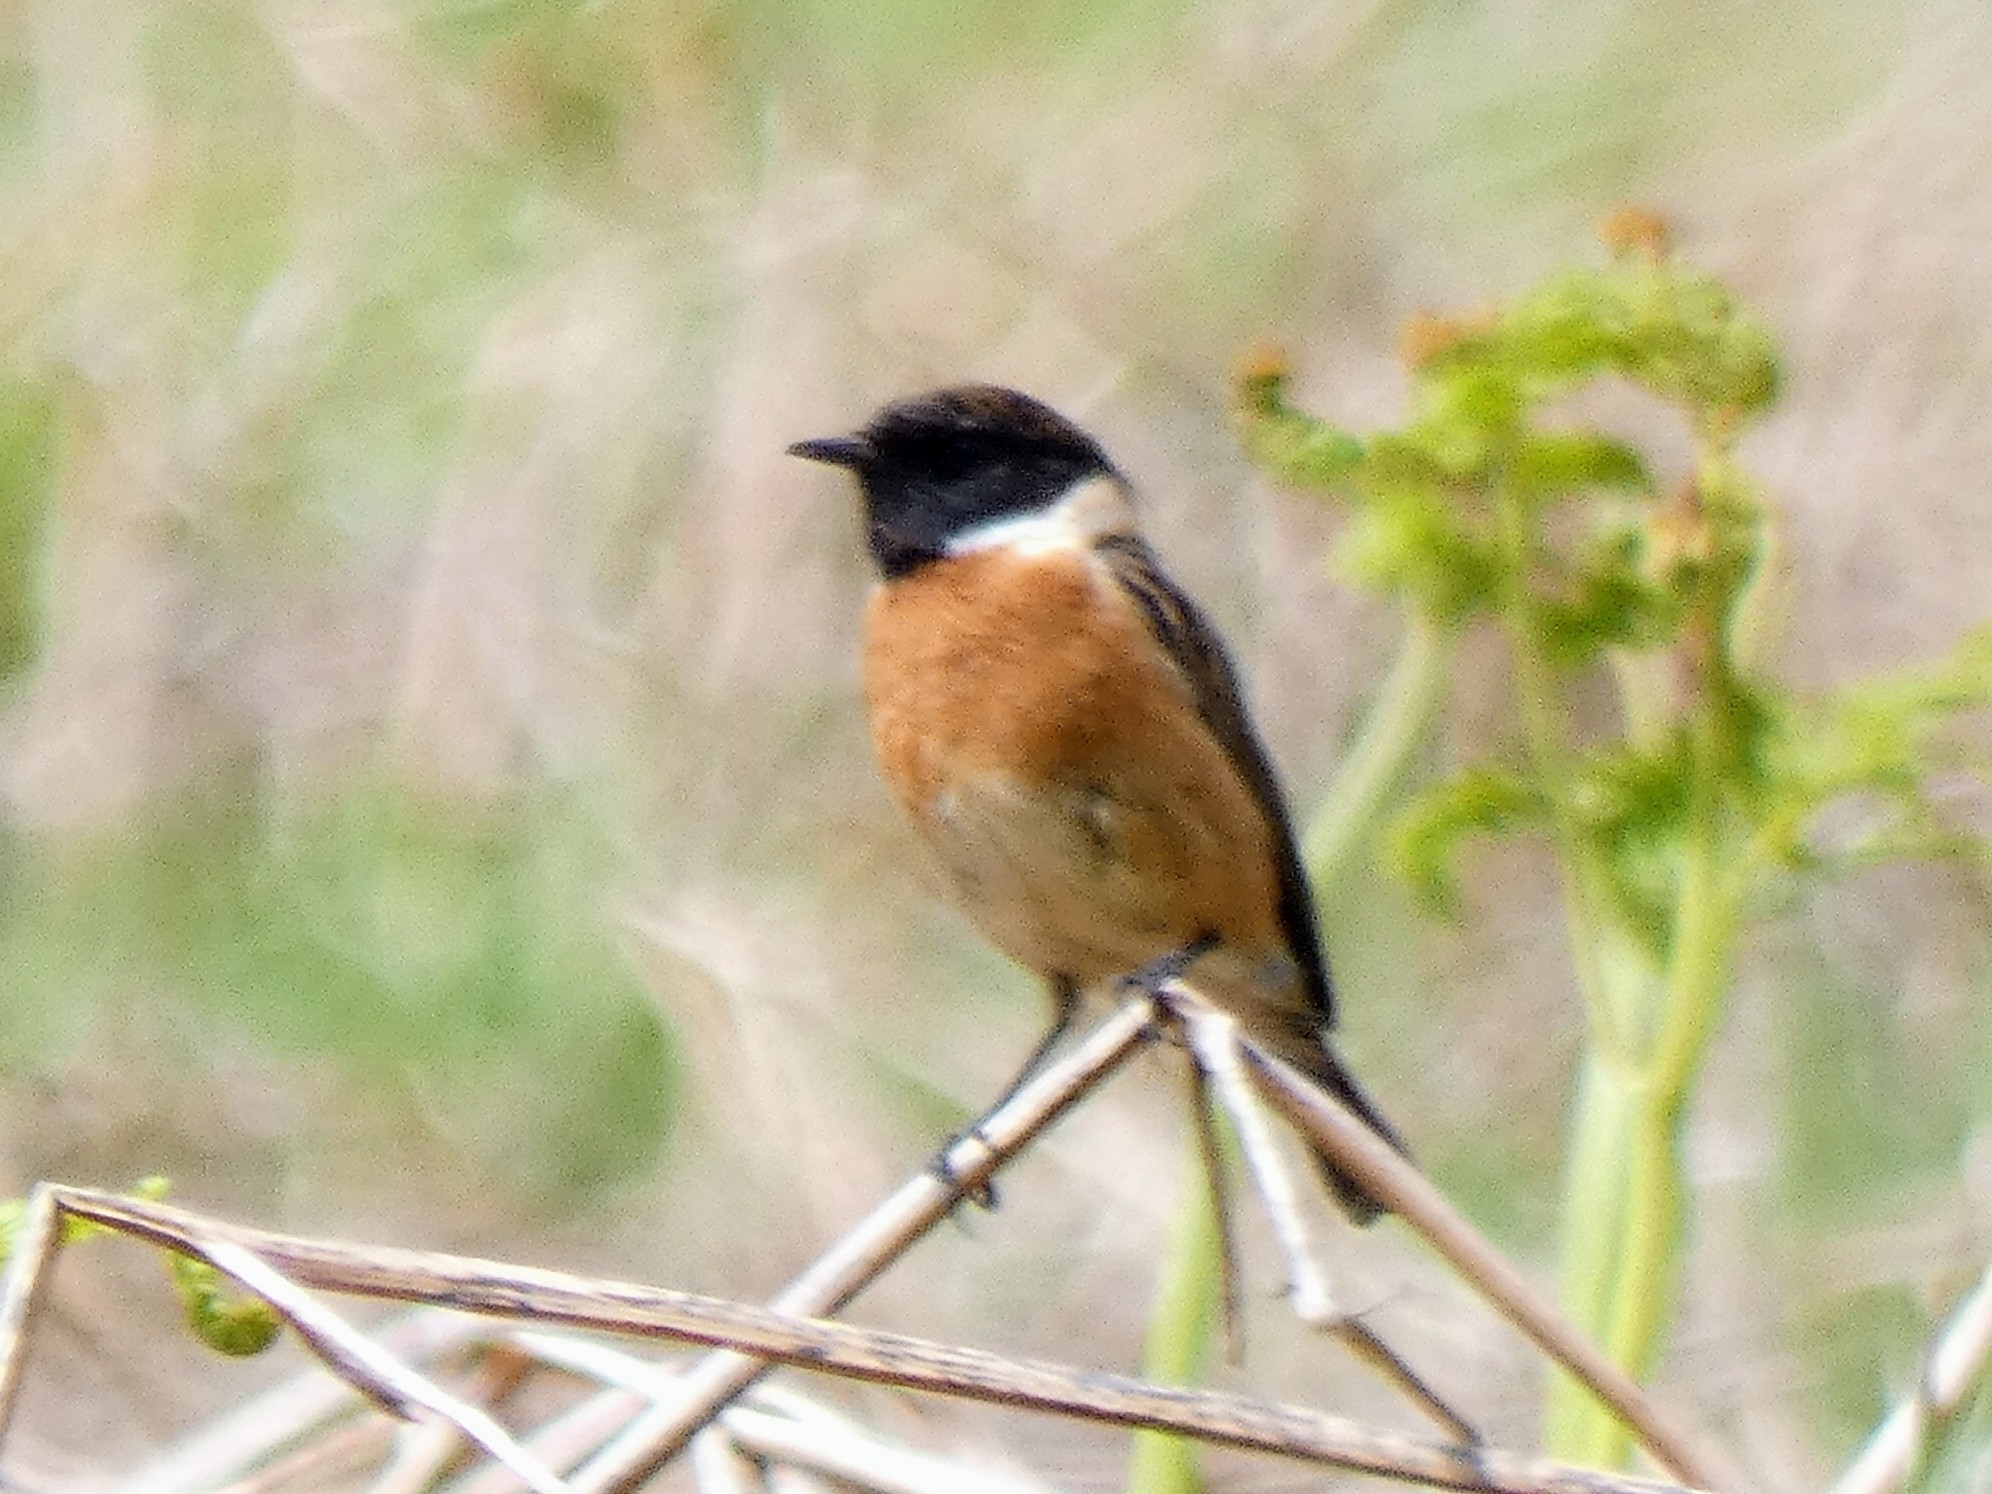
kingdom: Animalia
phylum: Chordata
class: Aves
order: Passeriformes
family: Muscicapidae
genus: Saxicola
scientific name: Saxicola rubicola
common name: European stonechat
